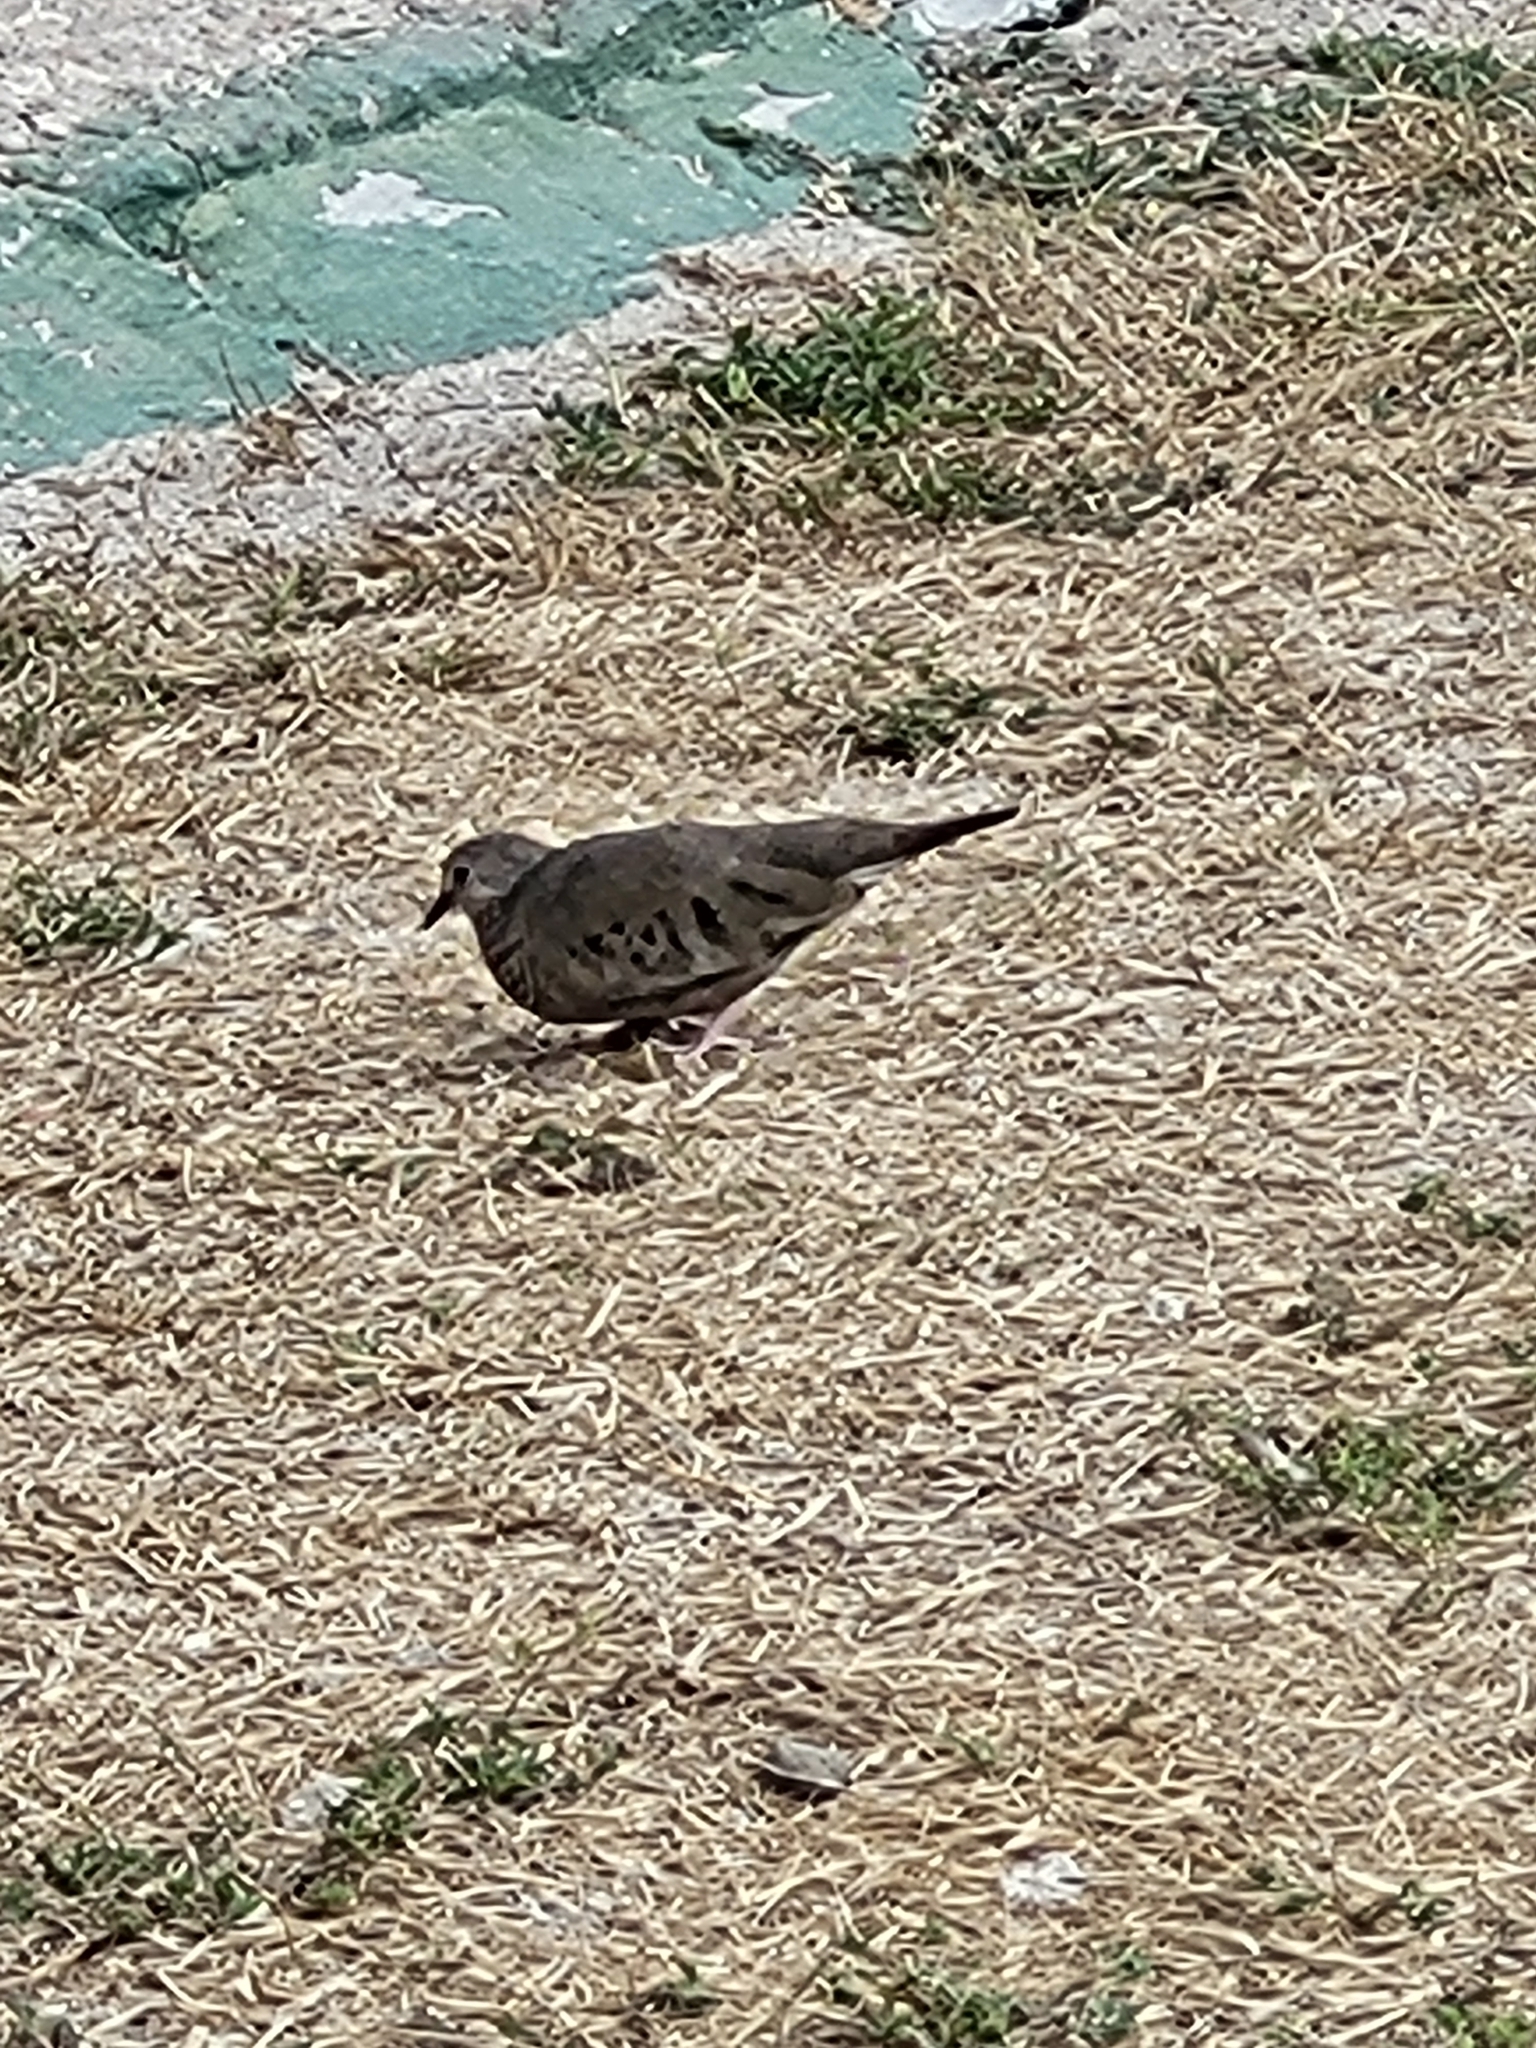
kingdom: Animalia
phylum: Chordata
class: Aves
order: Columbiformes
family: Columbidae
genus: Columbina
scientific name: Columbina passerina
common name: Common ground-dove
